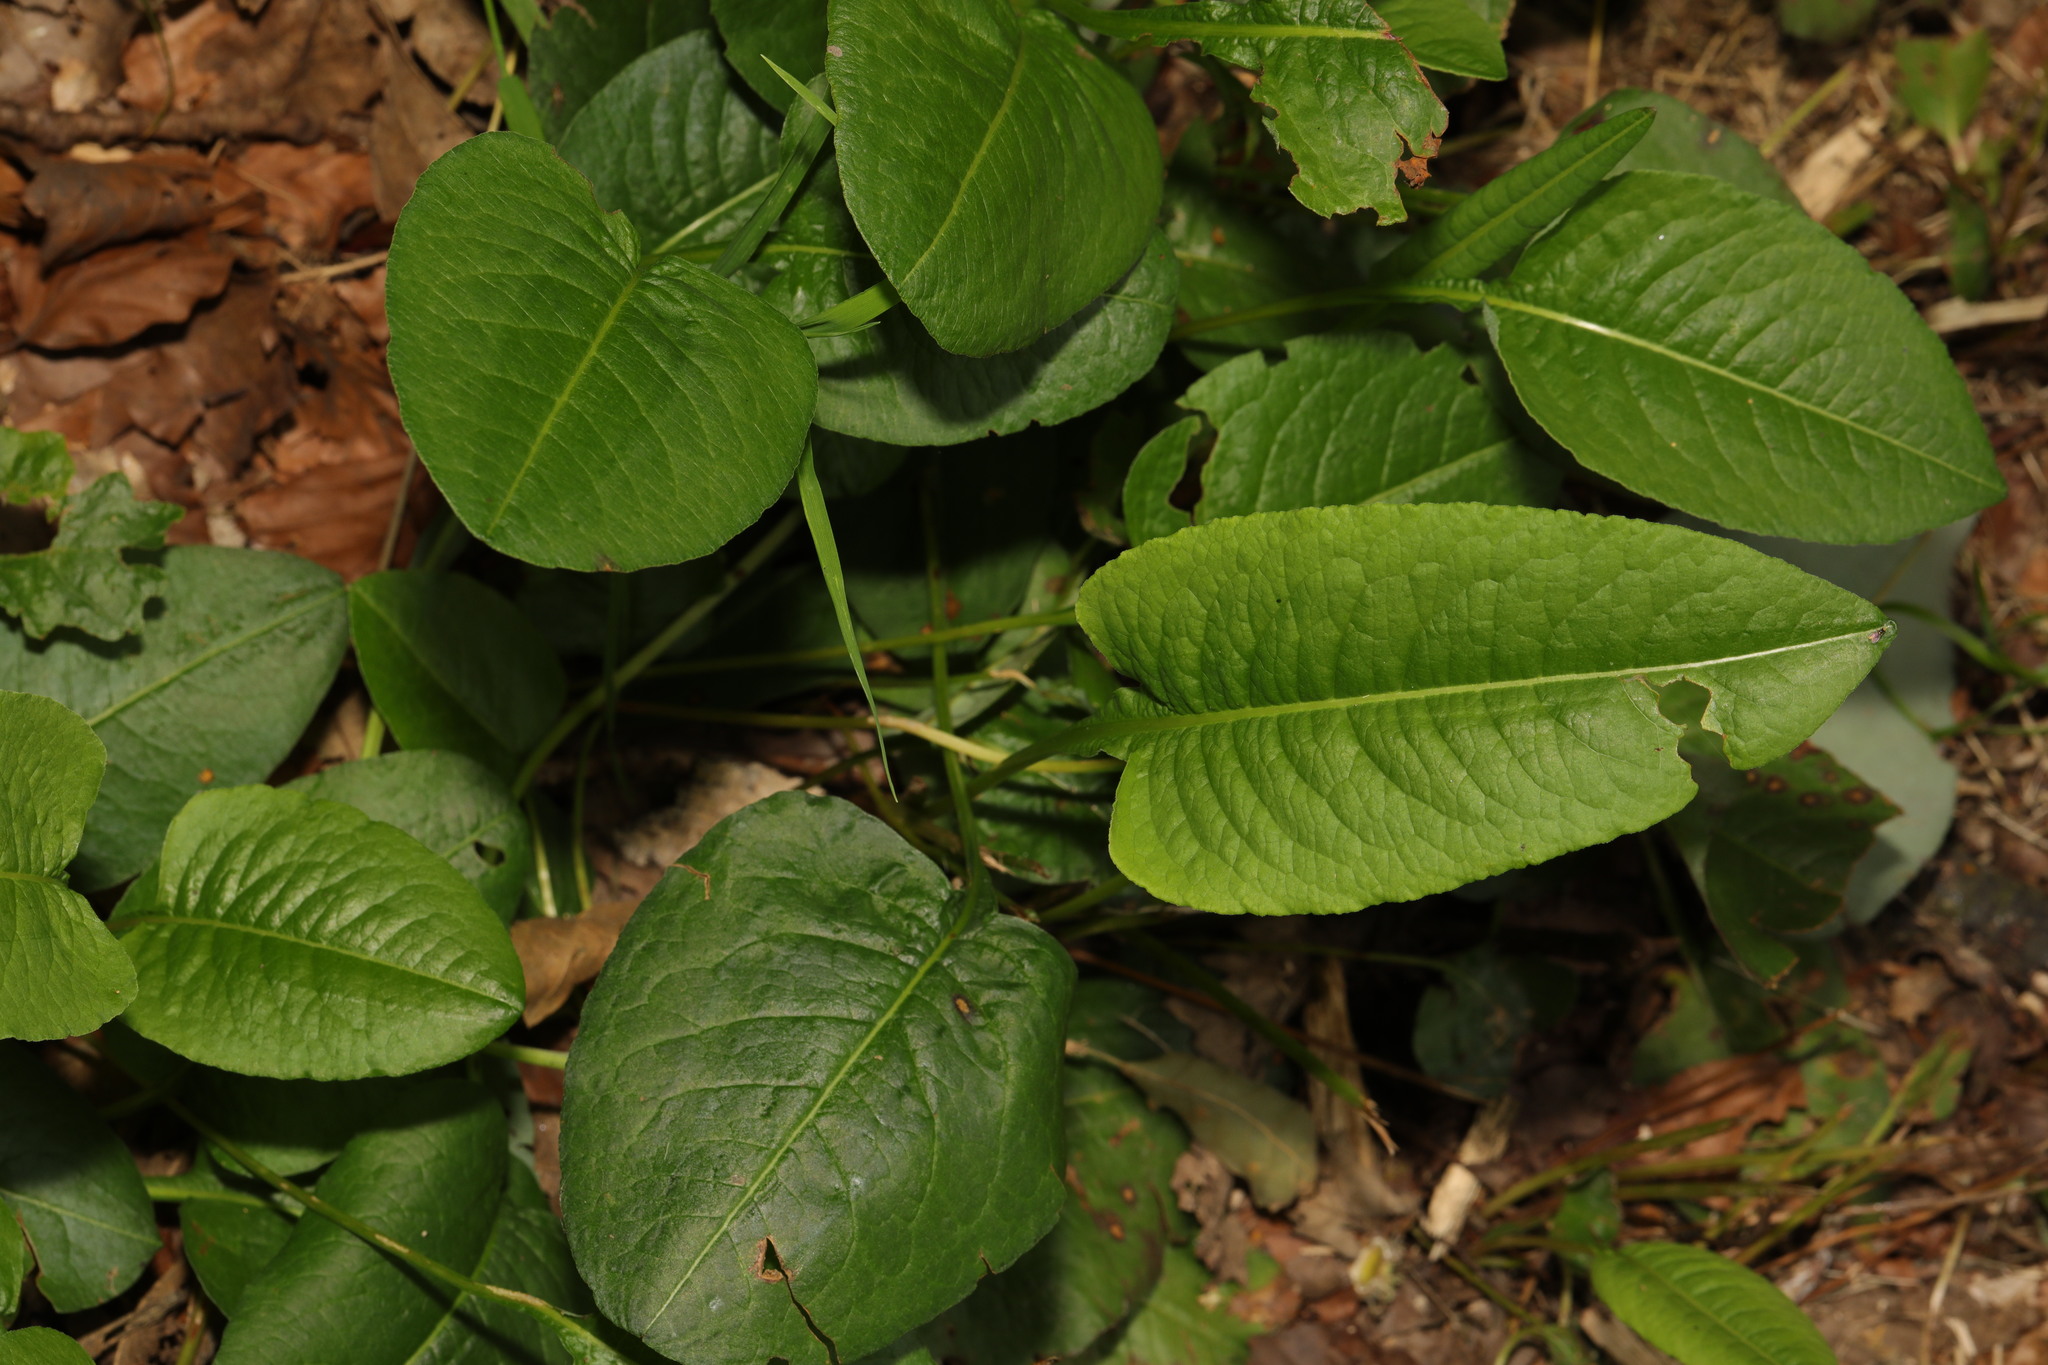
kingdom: Plantae
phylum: Tracheophyta
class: Magnoliopsida
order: Caryophyllales
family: Polygonaceae
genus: Bistorta
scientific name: Bistorta officinalis
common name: Common bistort
